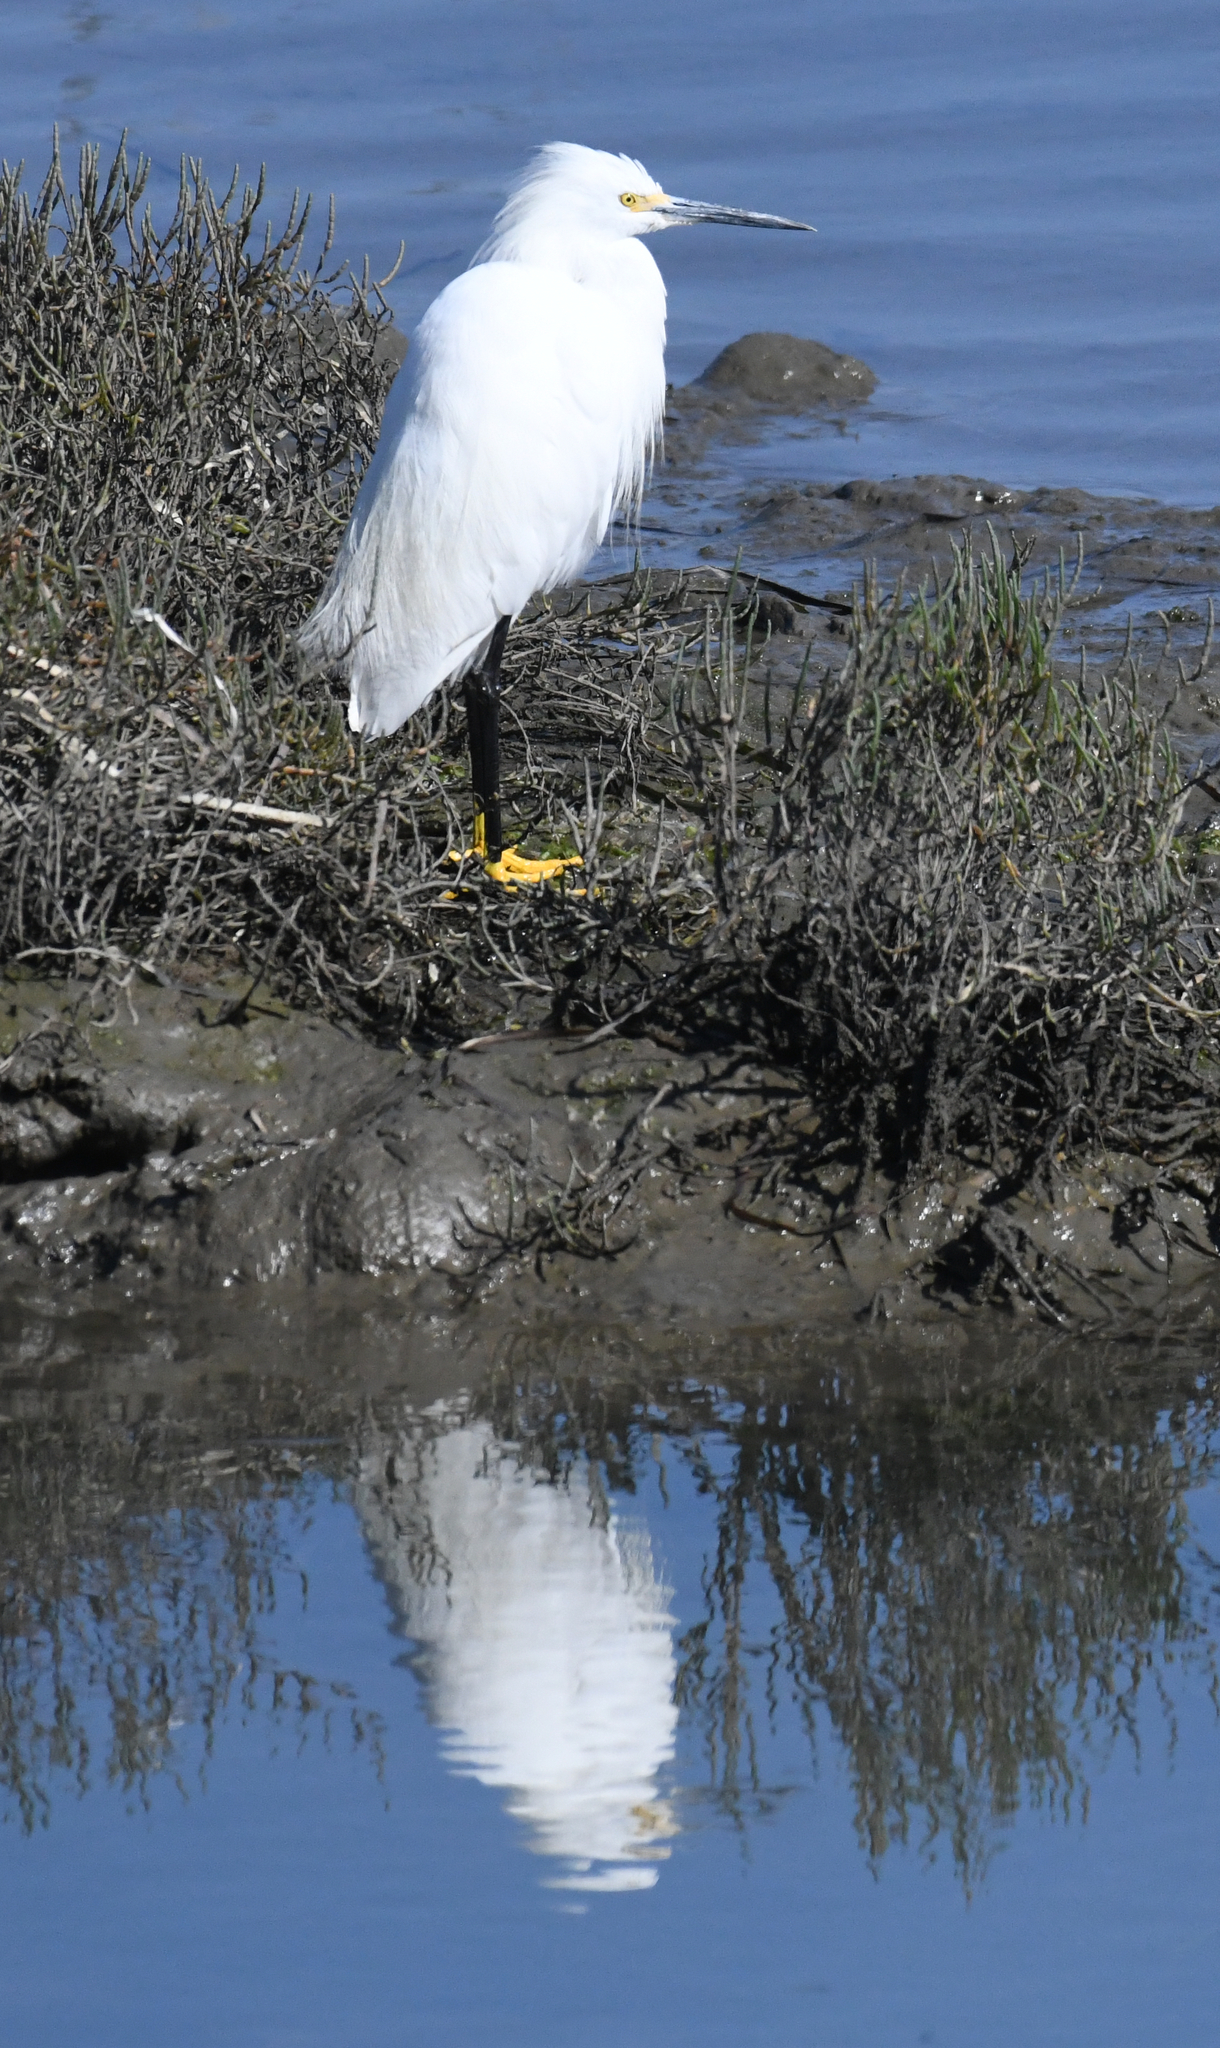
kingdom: Animalia
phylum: Chordata
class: Aves
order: Pelecaniformes
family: Ardeidae
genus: Egretta
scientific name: Egretta thula
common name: Snowy egret
